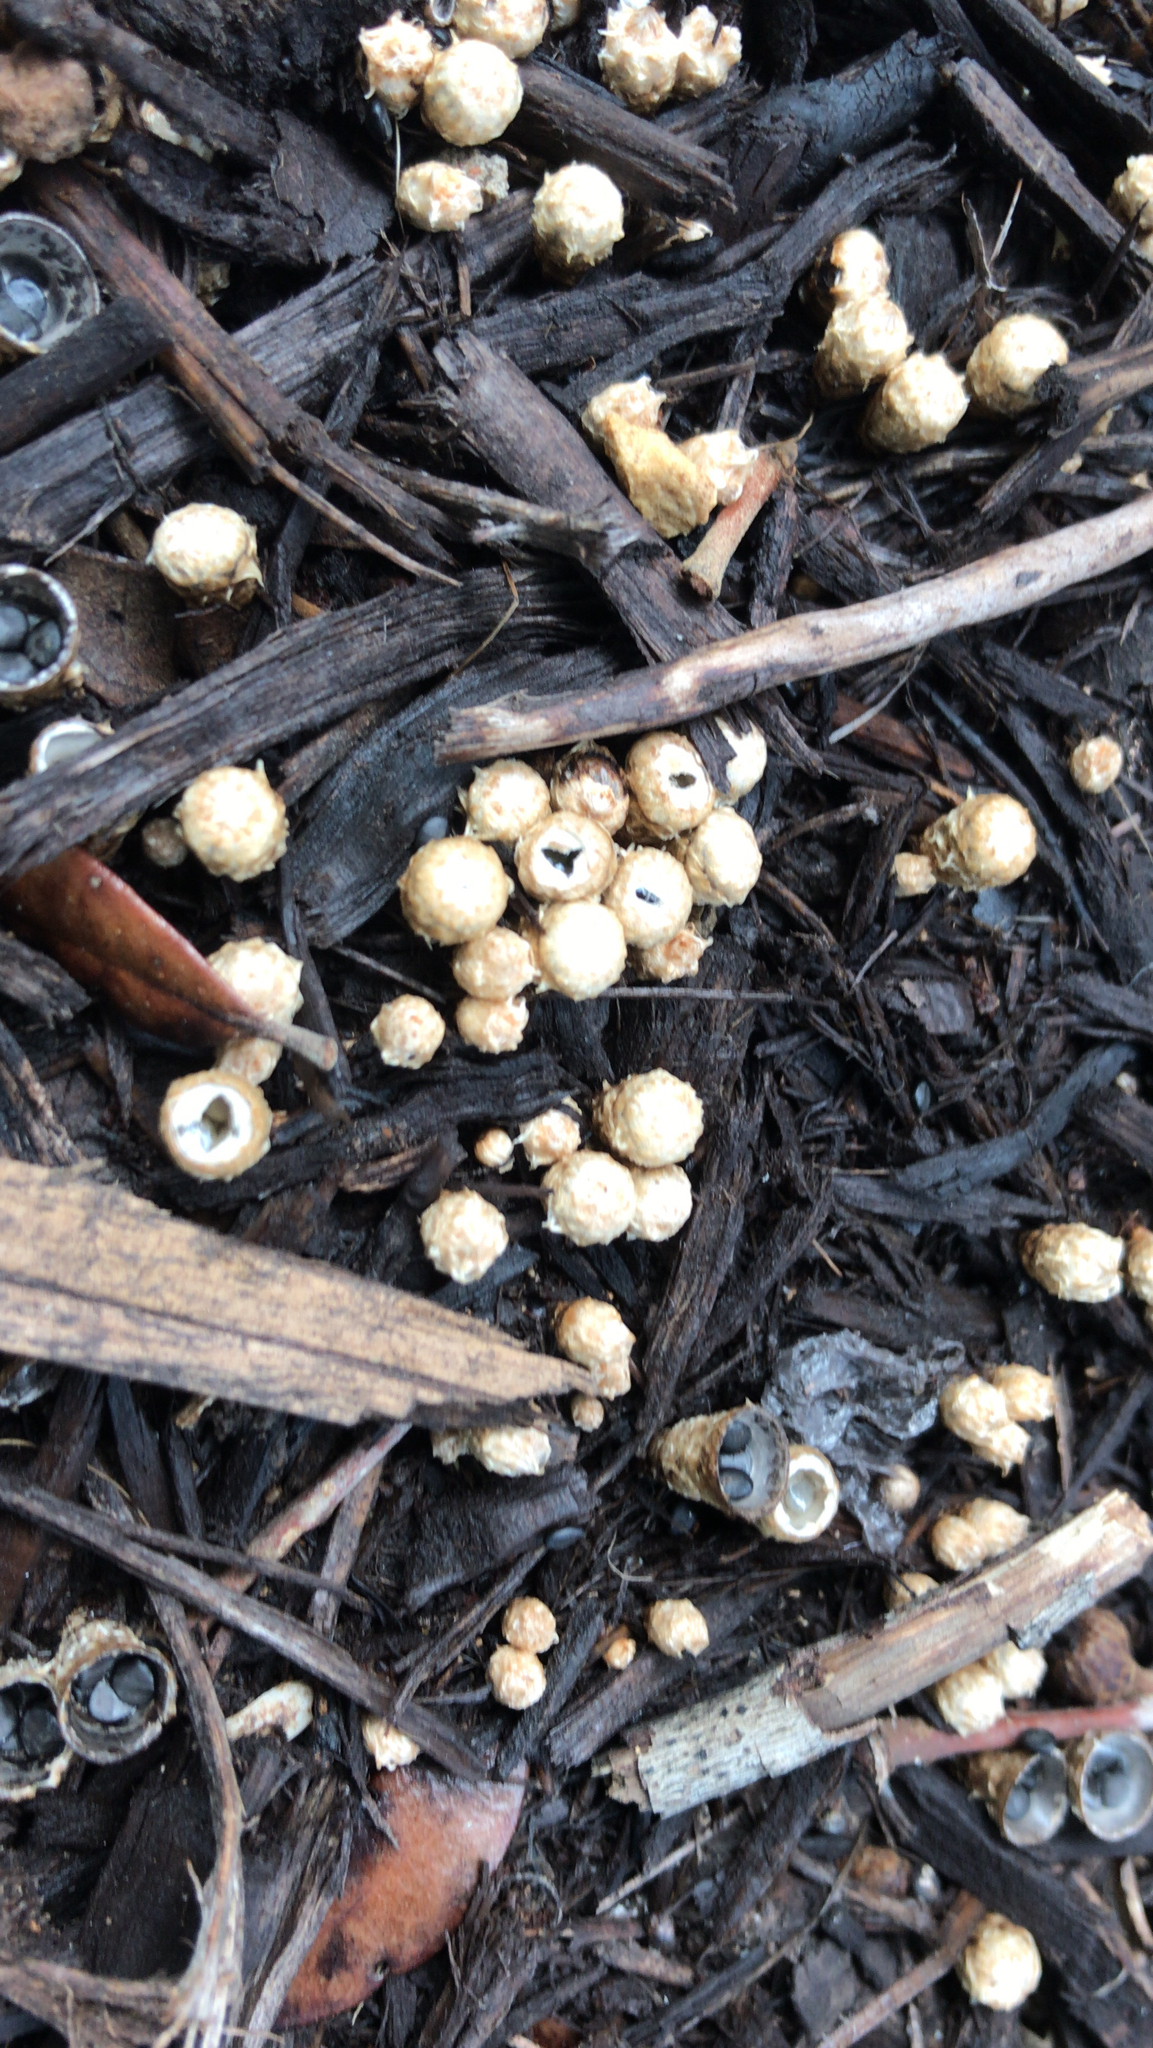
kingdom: Fungi
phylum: Basidiomycota
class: Agaricomycetes
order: Agaricales
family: Agaricaceae
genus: Cyathus
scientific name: Cyathus stercoreus
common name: Dung bird's nest
